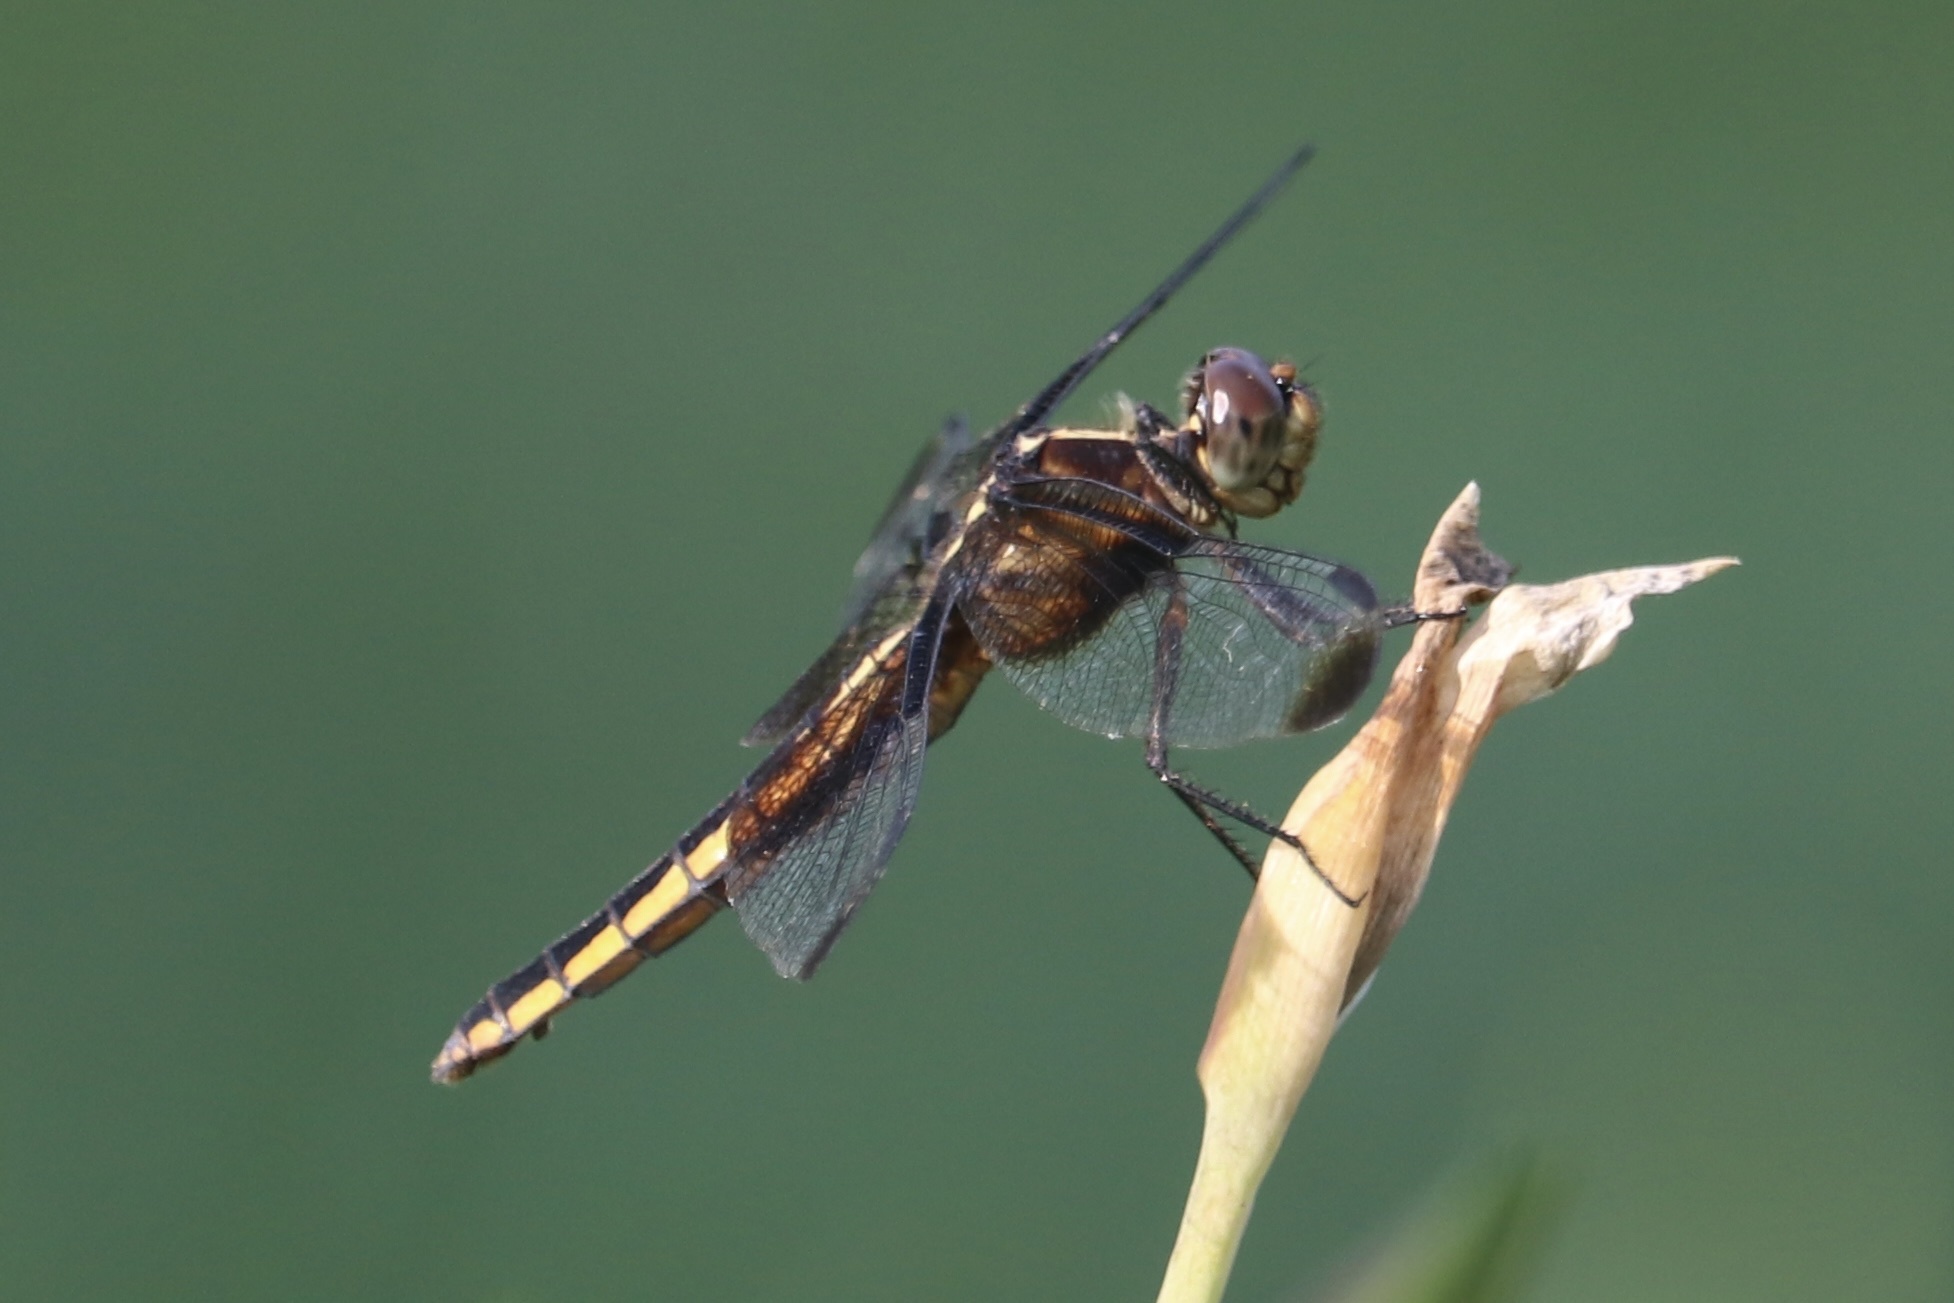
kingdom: Animalia
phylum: Arthropoda
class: Insecta
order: Odonata
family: Libellulidae
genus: Libellula
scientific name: Libellula luctuosa
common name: Widow skimmer
